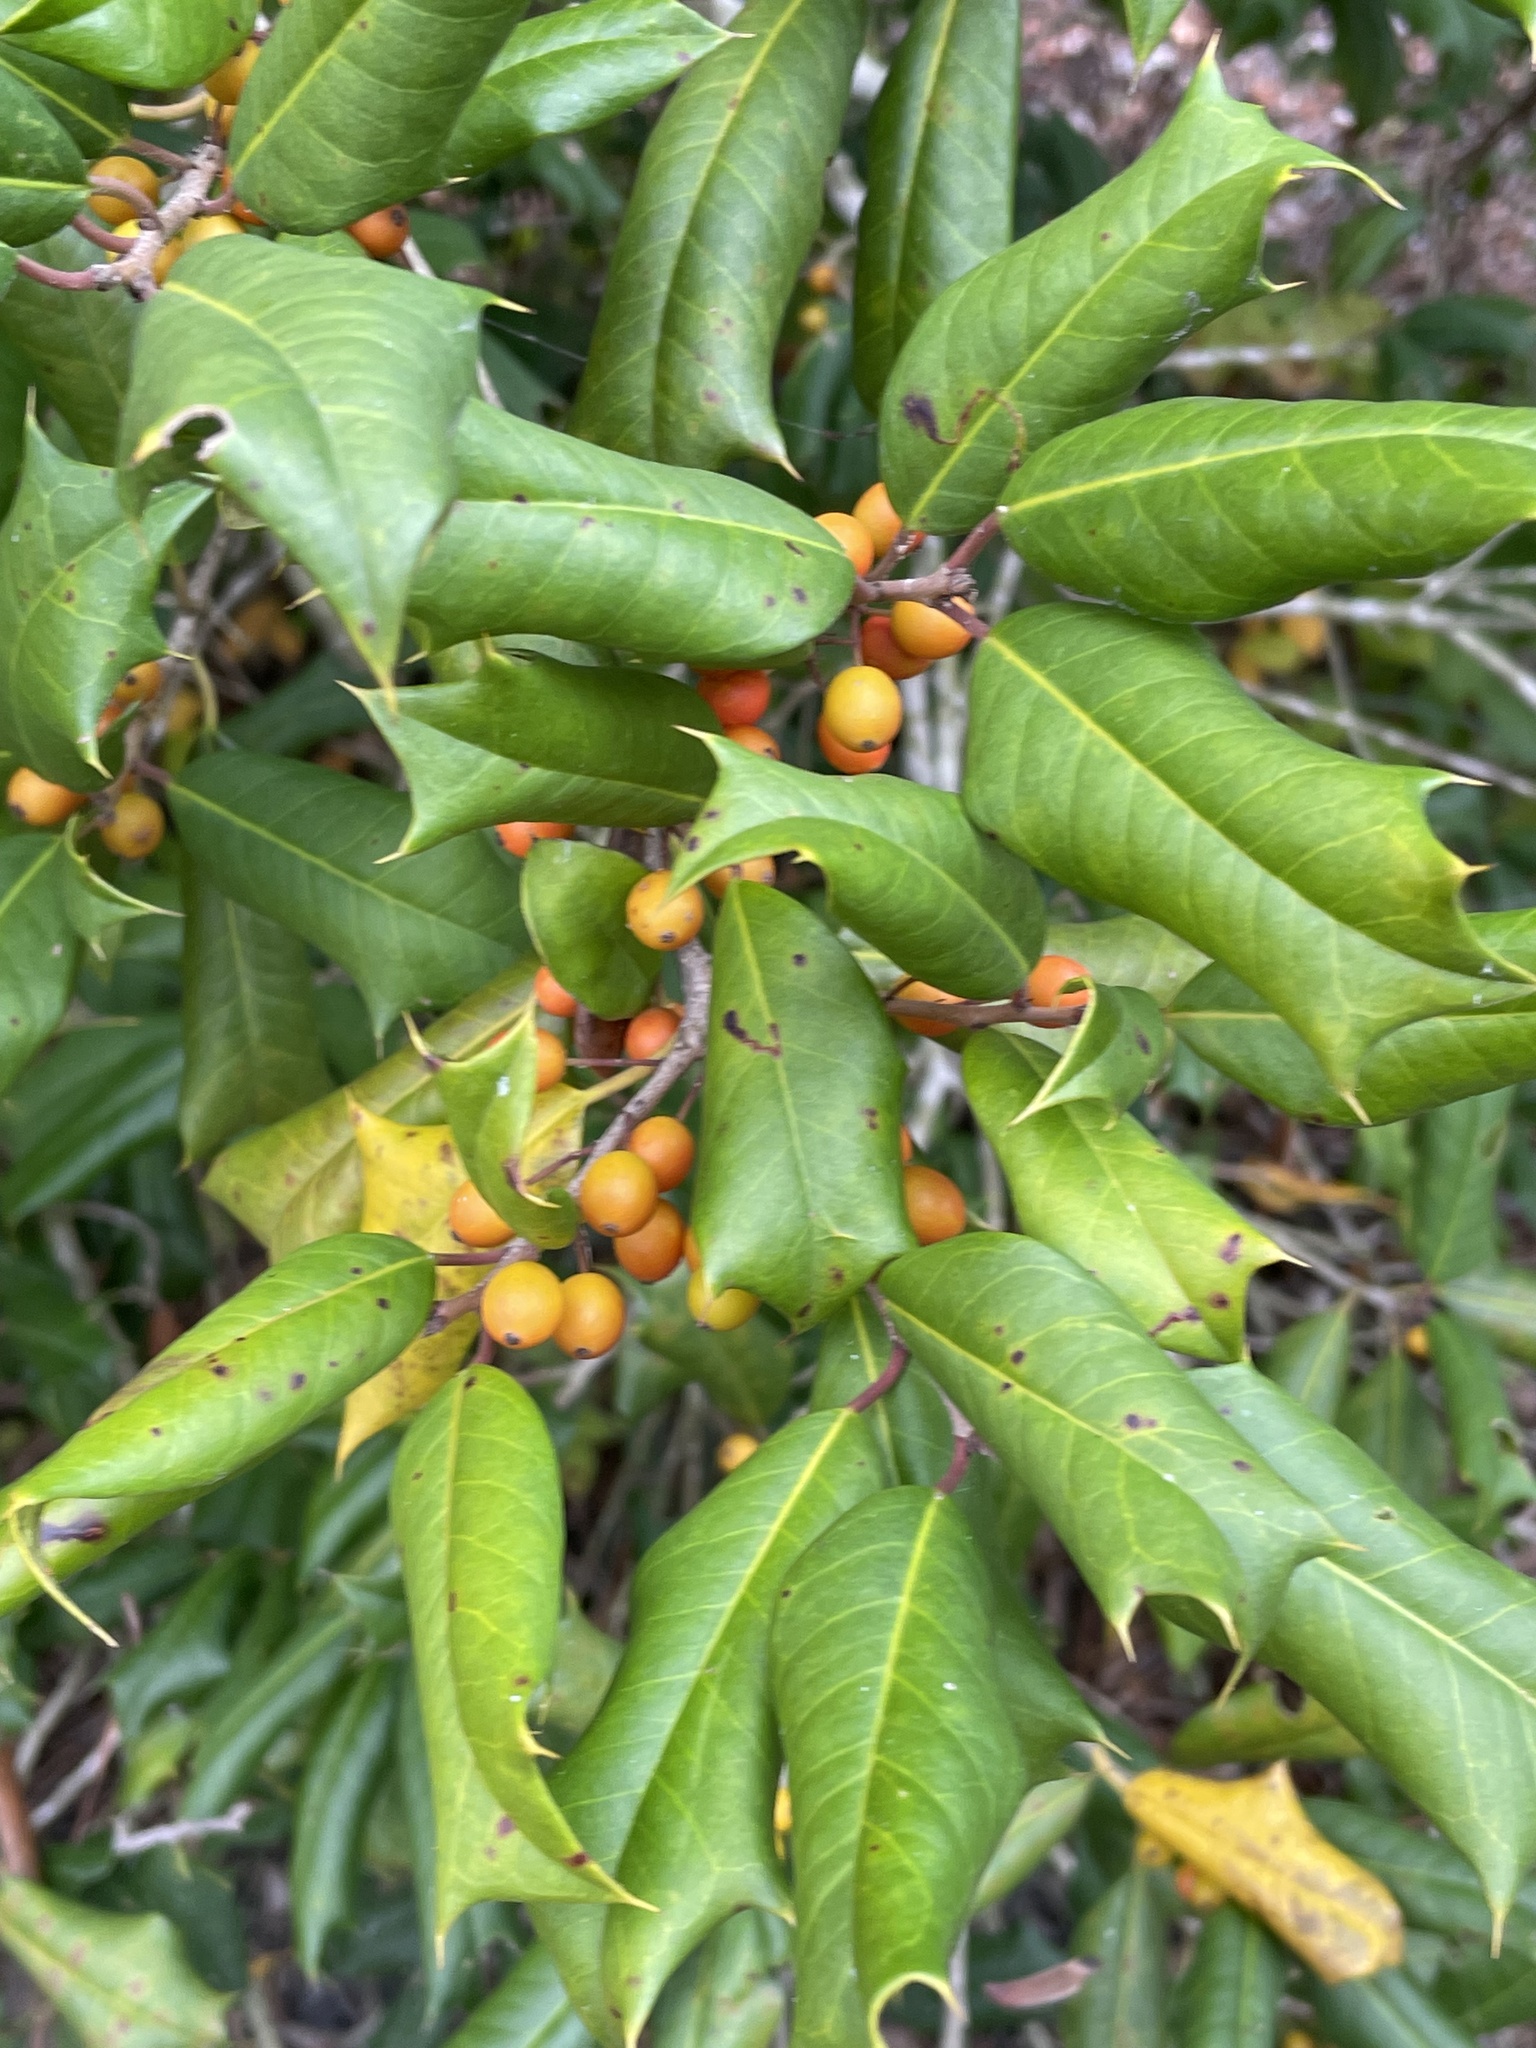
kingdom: Plantae
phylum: Tracheophyta
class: Magnoliopsida
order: Aquifoliales
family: Aquifoliaceae
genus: Ilex
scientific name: Ilex opaca
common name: American holly
